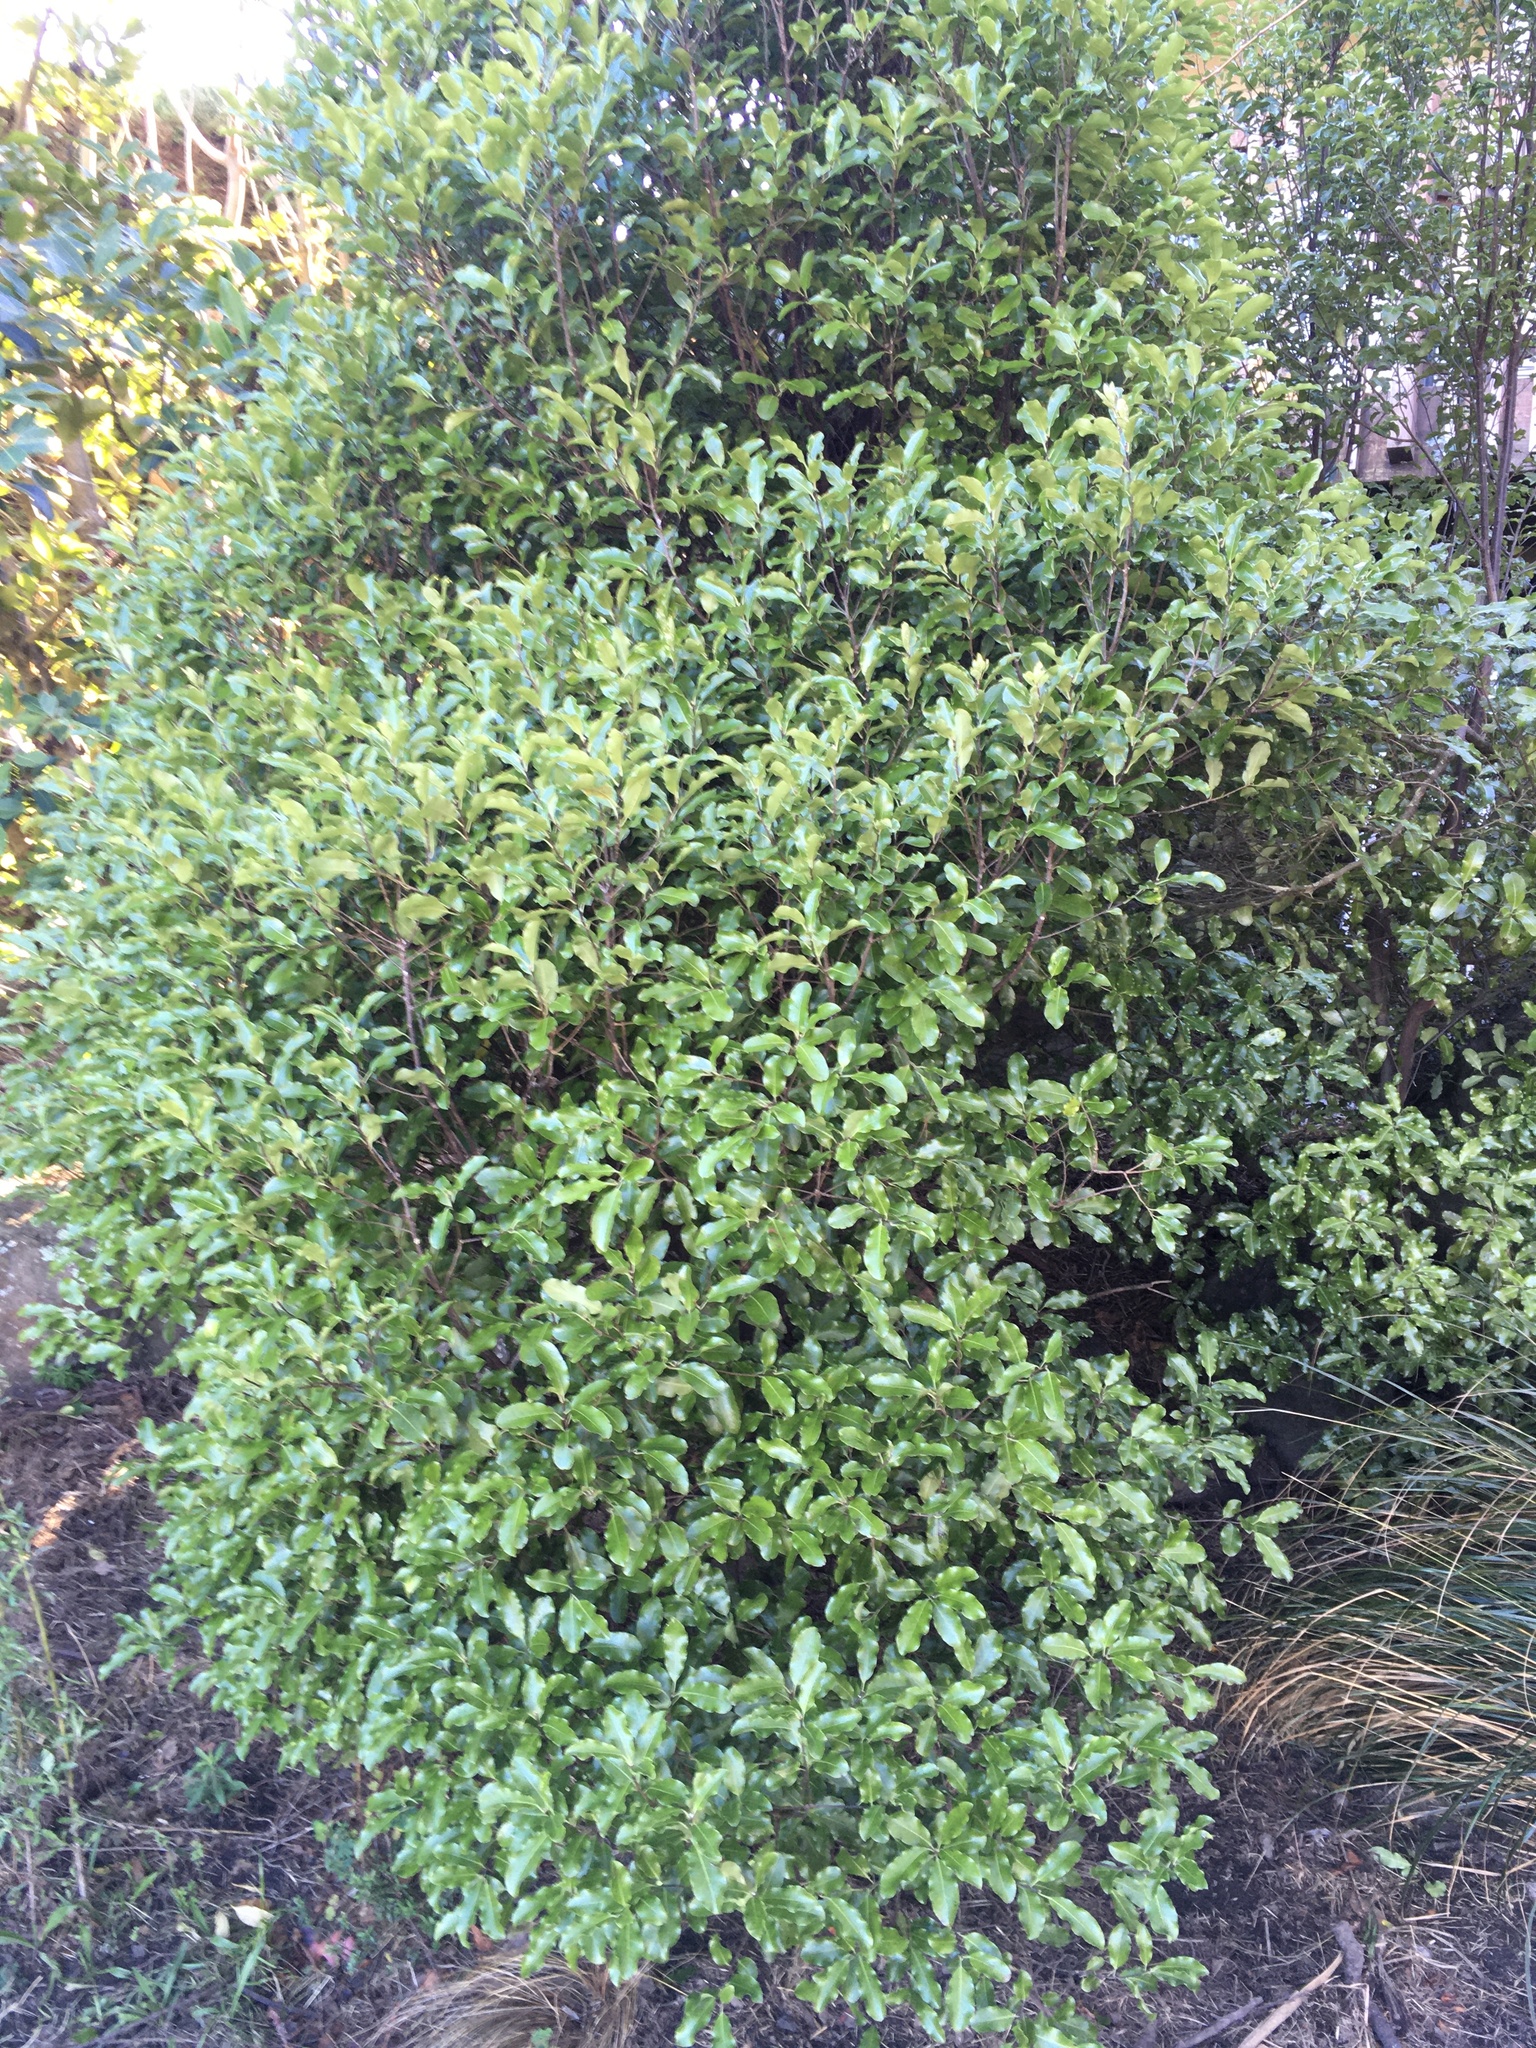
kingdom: Animalia
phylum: Arthropoda
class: Insecta
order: Hemiptera
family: Flatidae
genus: Siphanta
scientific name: Siphanta acuta
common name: Torpedo bug
